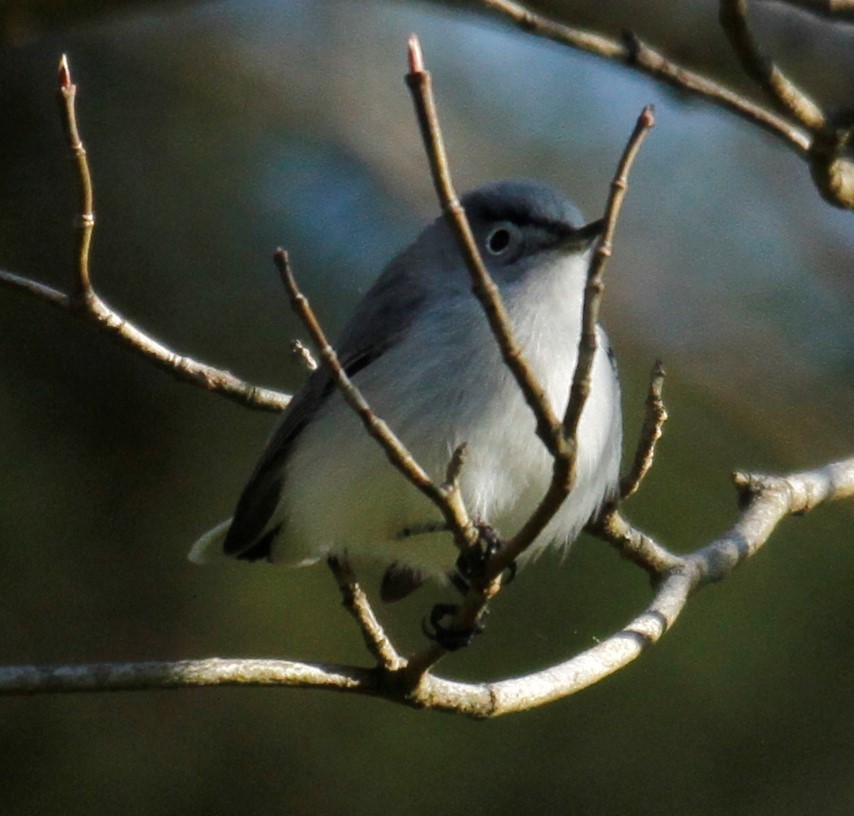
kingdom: Animalia
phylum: Chordata
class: Aves
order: Passeriformes
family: Polioptilidae
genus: Polioptila
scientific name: Polioptila caerulea
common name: Blue-gray gnatcatcher
